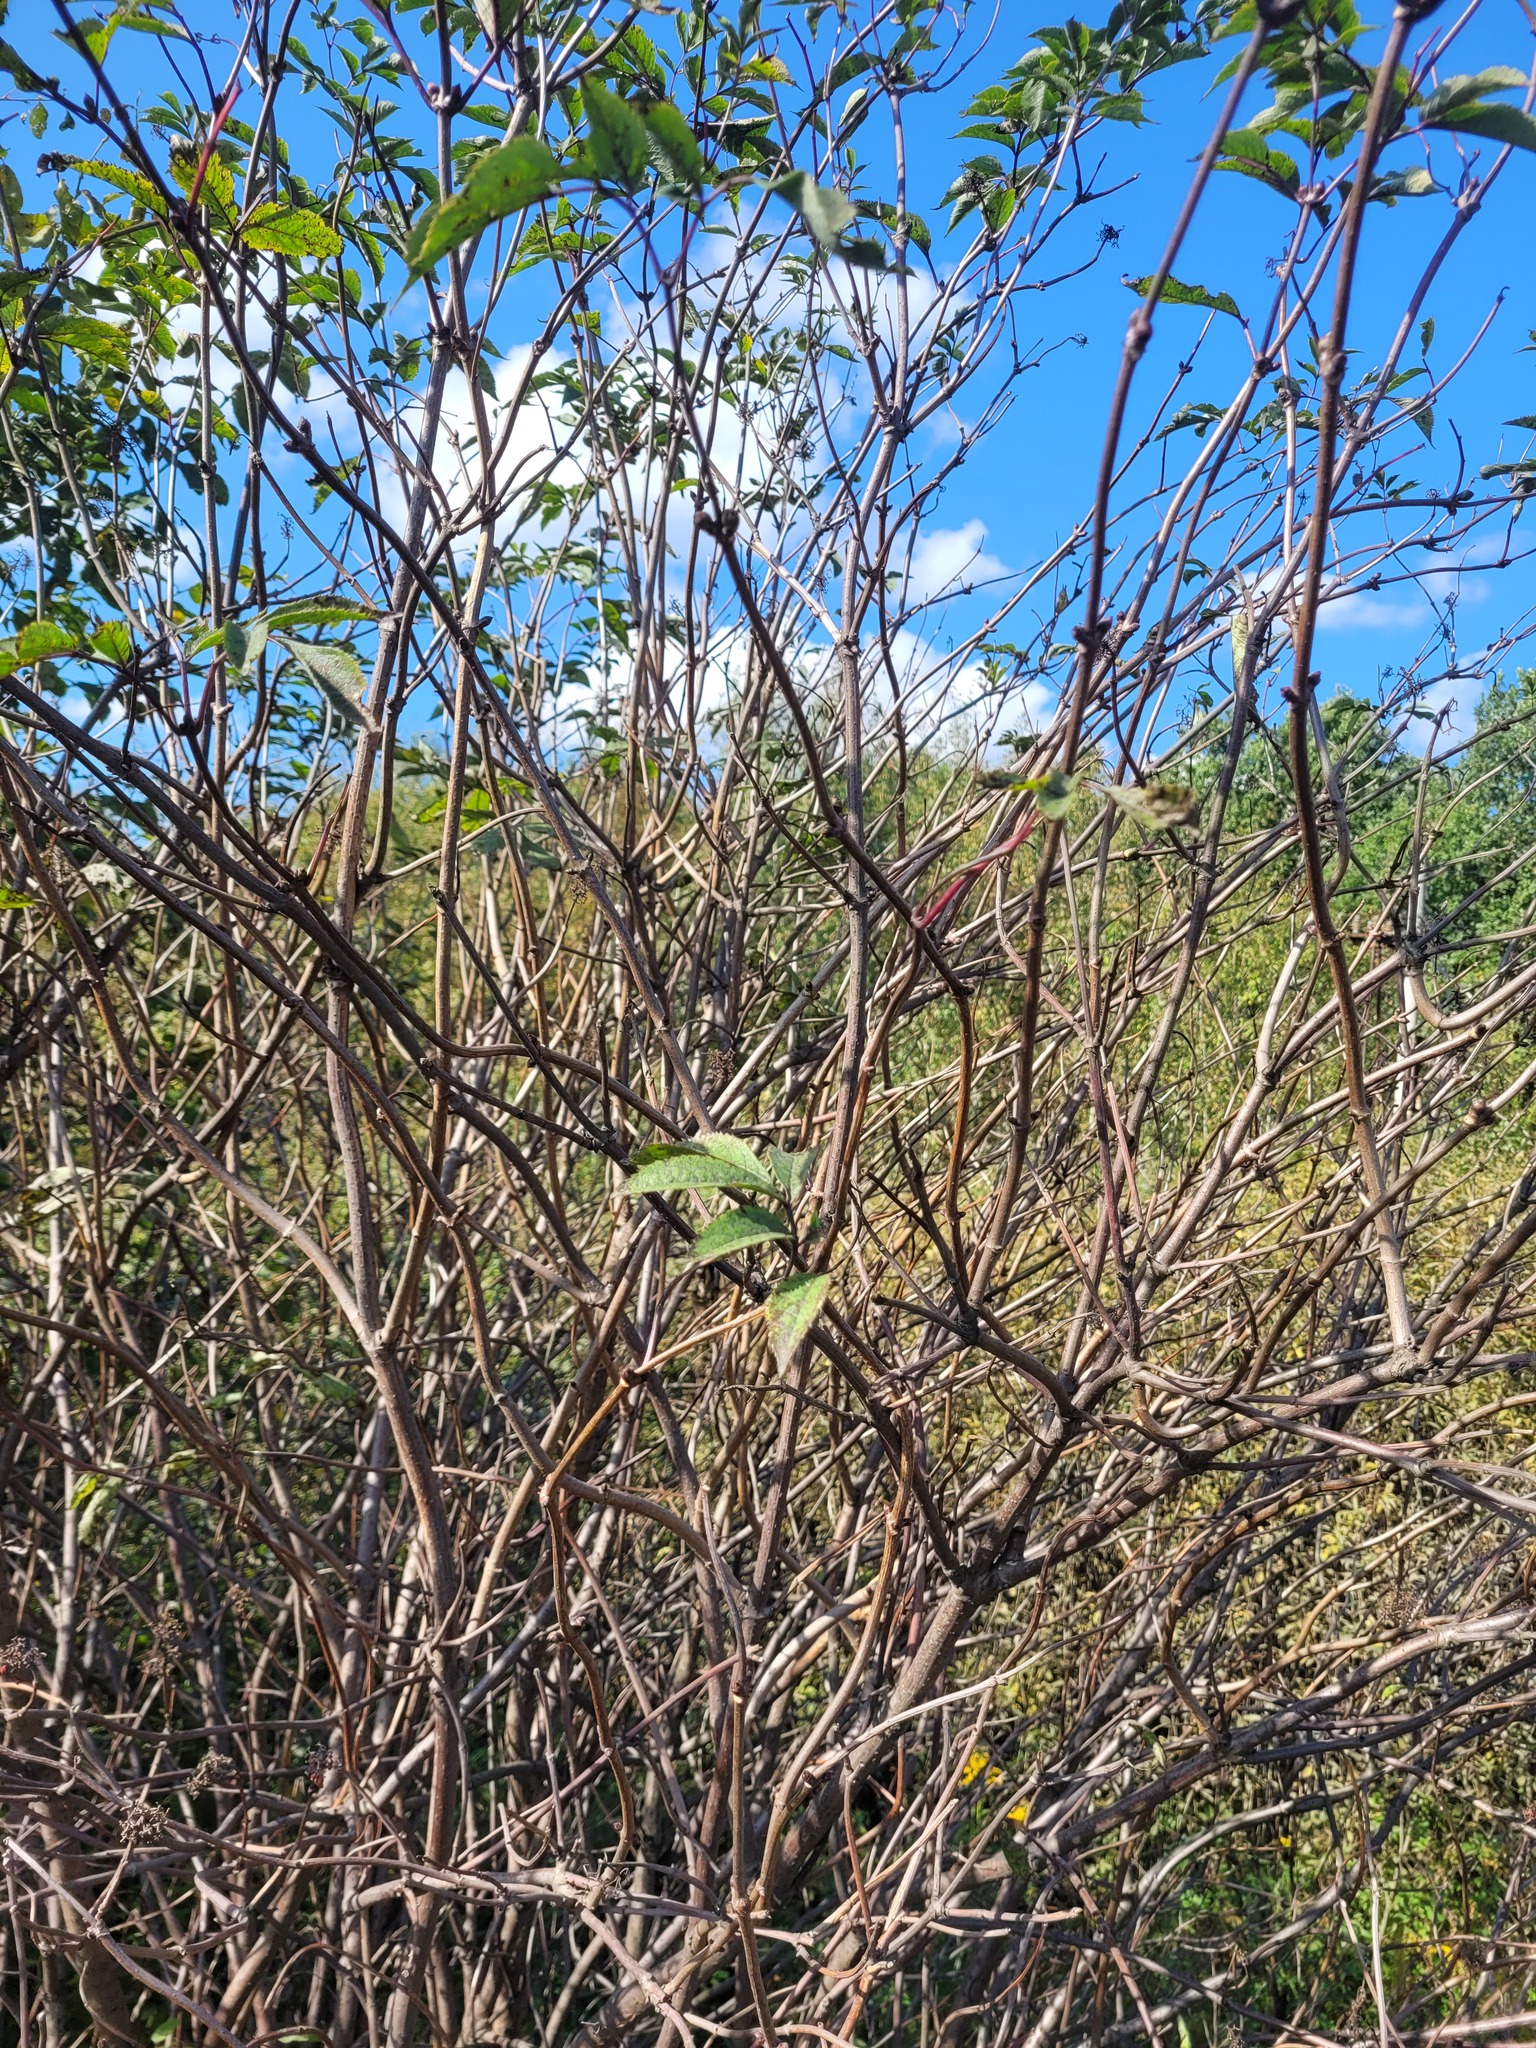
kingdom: Plantae
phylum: Tracheophyta
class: Magnoliopsida
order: Dipsacales
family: Viburnaceae
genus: Sambucus
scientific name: Sambucus racemosa
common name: Red-berried elder
